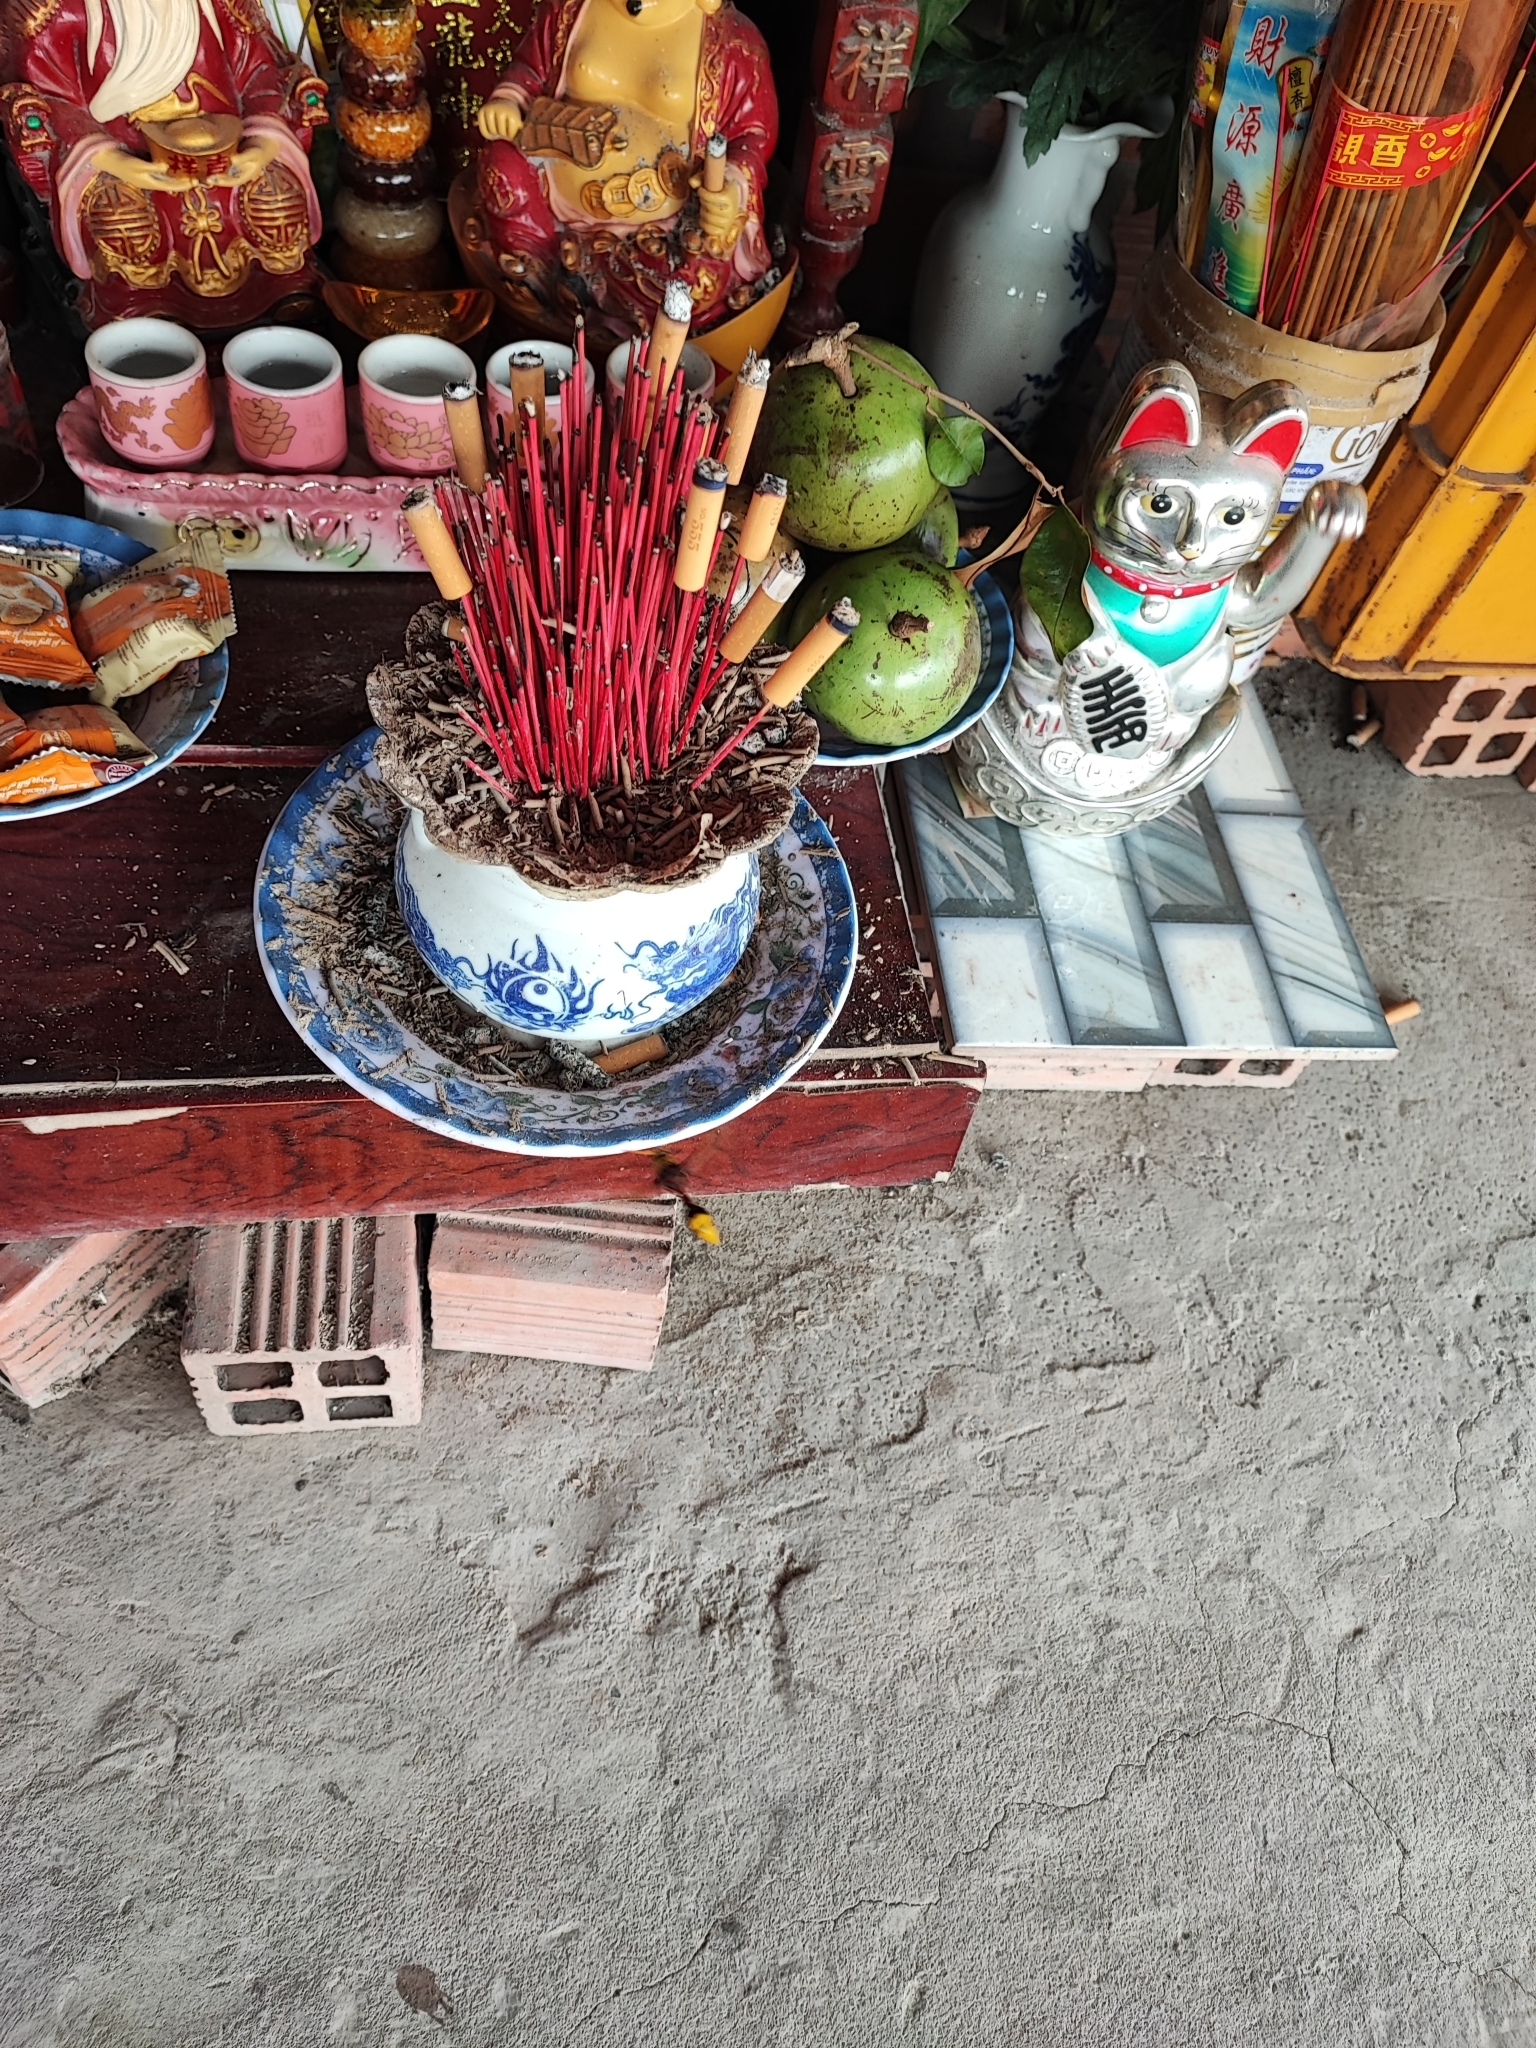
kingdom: Animalia
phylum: Arthropoda
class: Insecta
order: Hymenoptera
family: Eumenidae
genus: Delta
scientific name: Delta pyriforme
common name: Wasp
